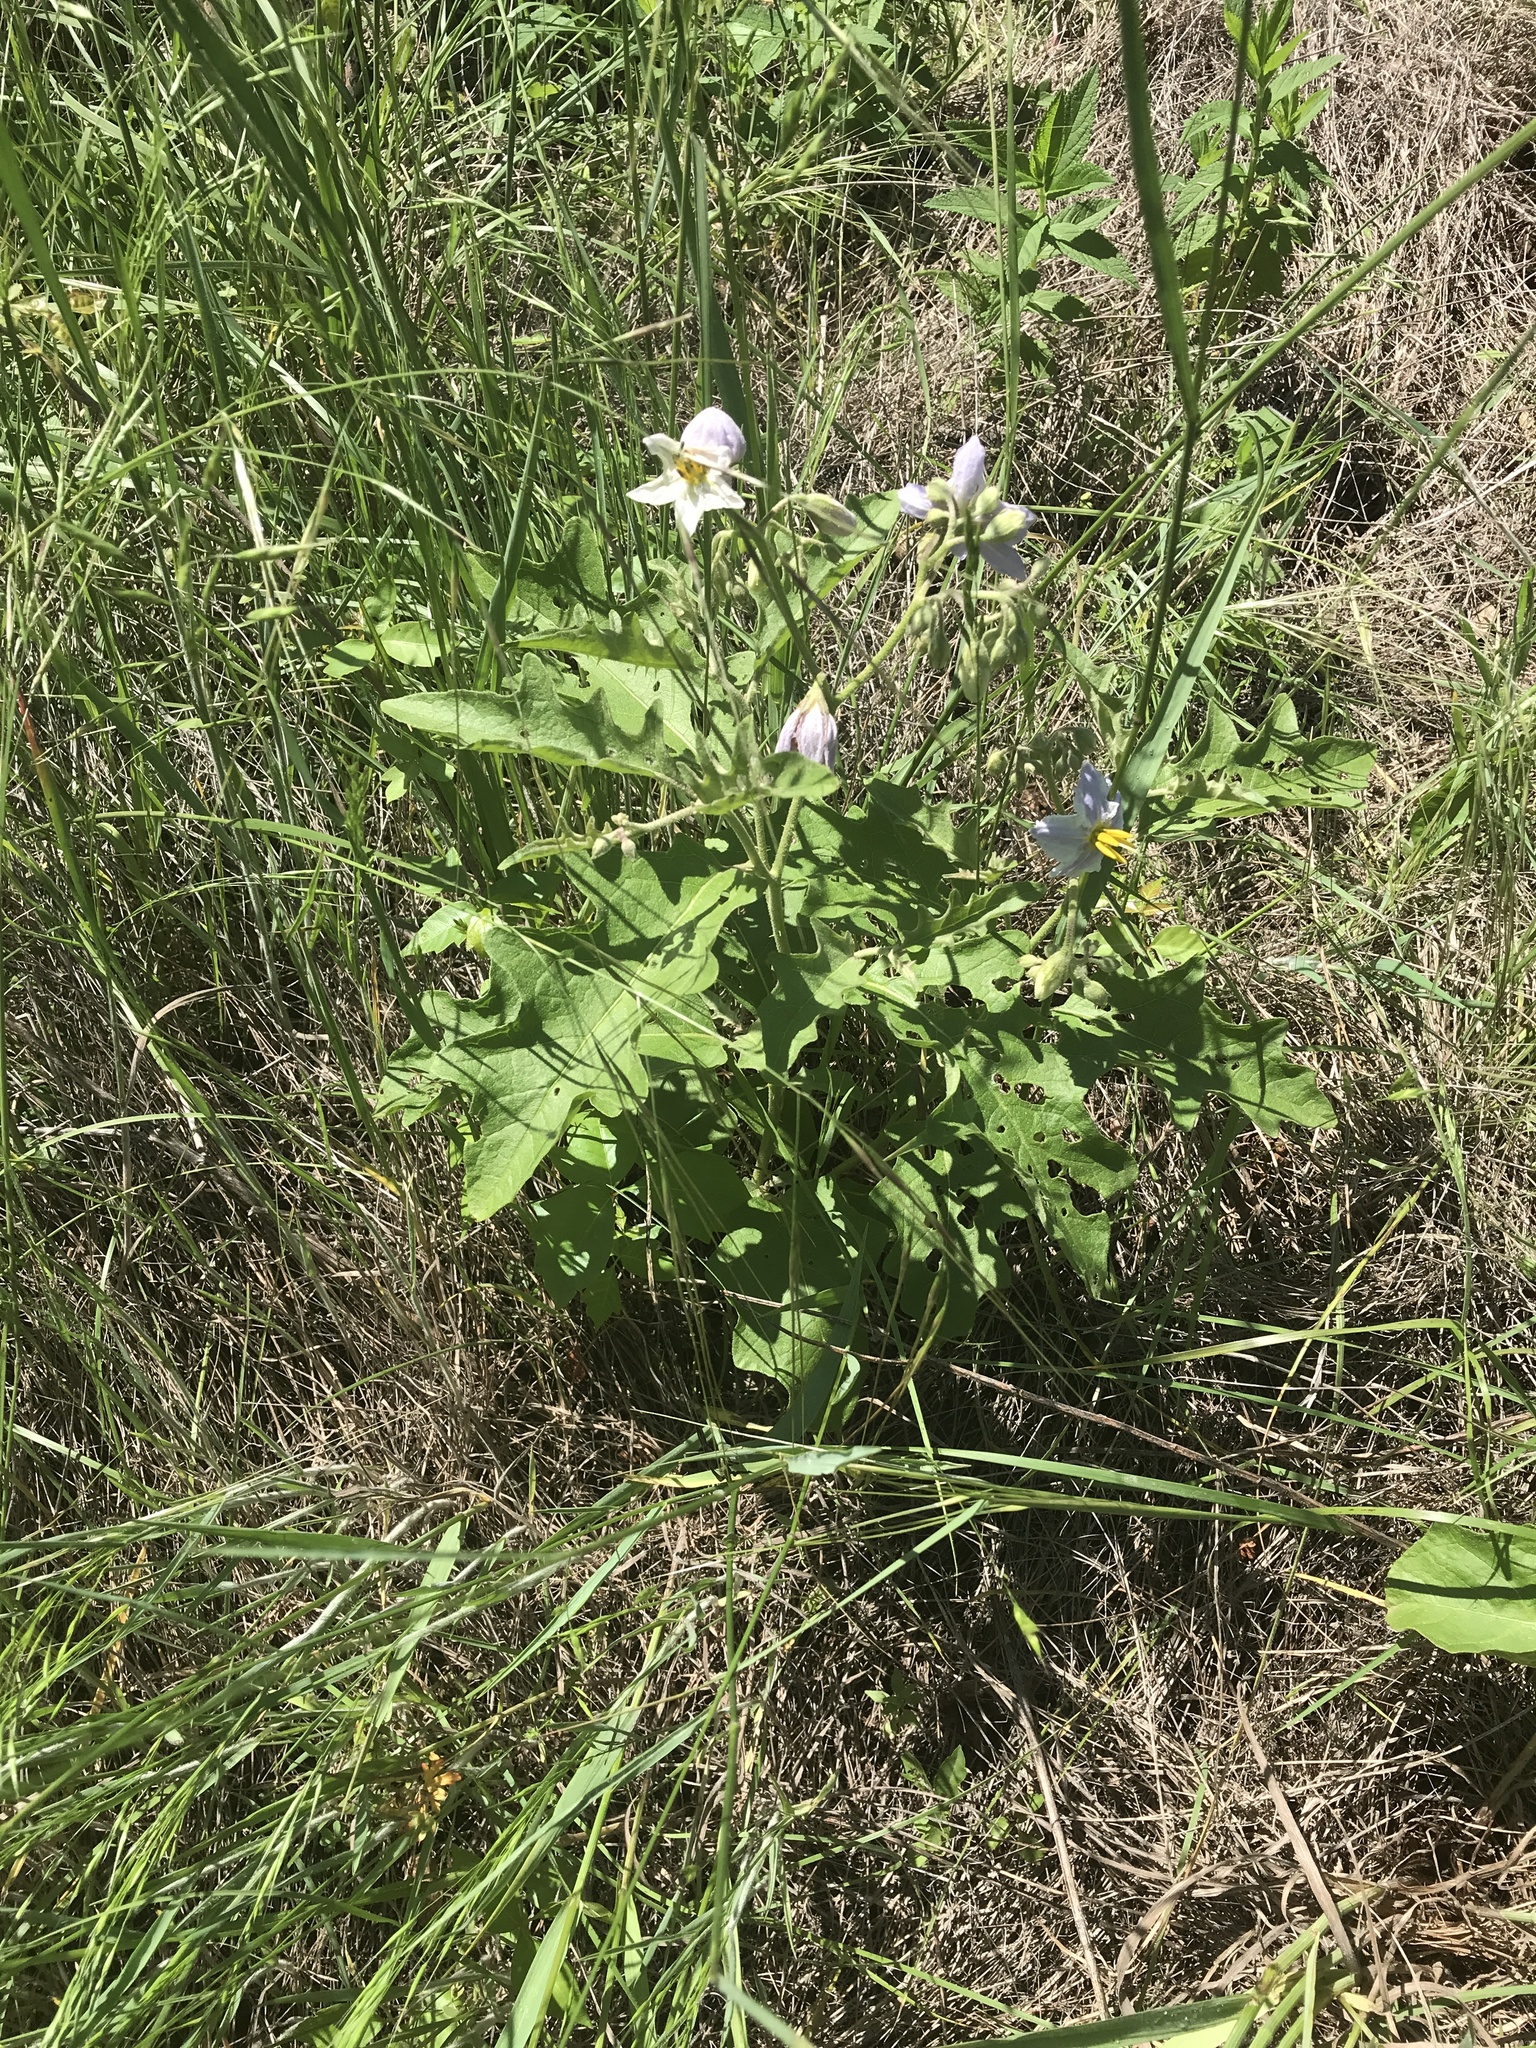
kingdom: Plantae
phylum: Tracheophyta
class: Magnoliopsida
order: Solanales
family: Solanaceae
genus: Solanum
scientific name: Solanum dimidiatum
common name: Carolina horse-nettle
